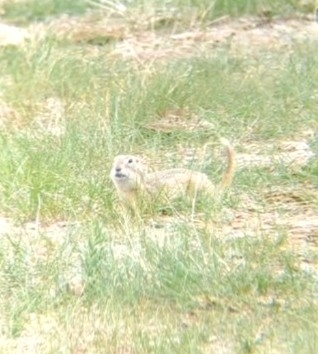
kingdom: Animalia
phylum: Chordata
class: Mammalia
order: Rodentia
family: Sciuridae
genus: Urocitellus
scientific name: Urocitellus richardsonii
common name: Richardson's ground squirrel
